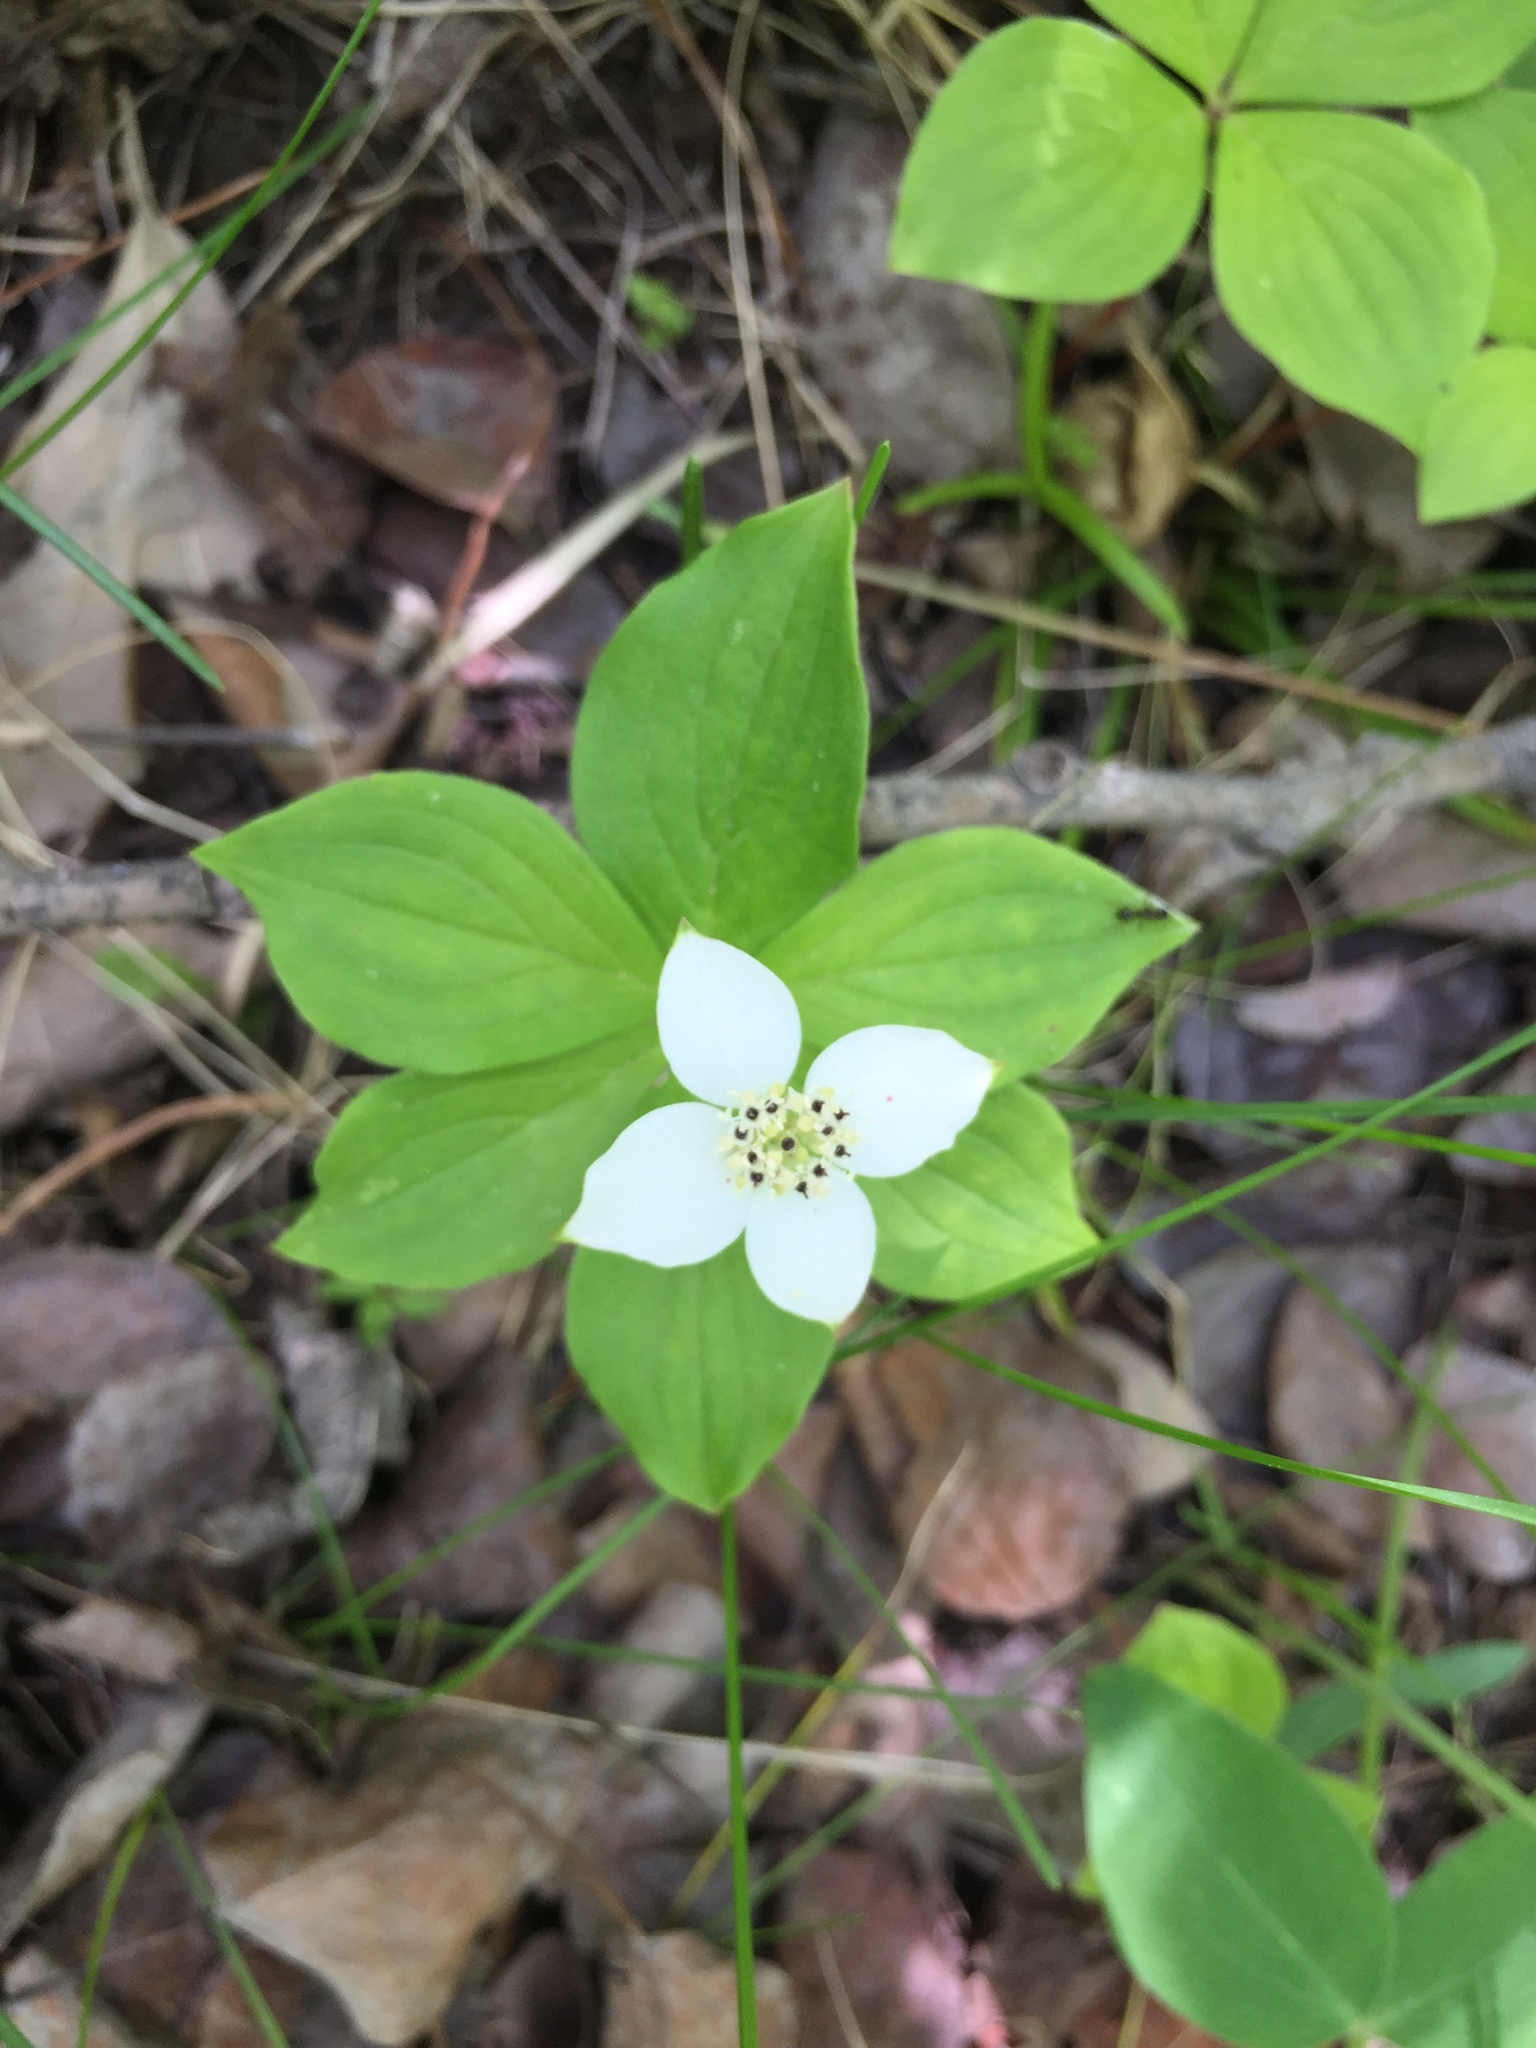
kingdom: Plantae
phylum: Tracheophyta
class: Magnoliopsida
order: Cornales
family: Cornaceae
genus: Cornus
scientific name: Cornus canadensis
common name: Creeping dogwood
